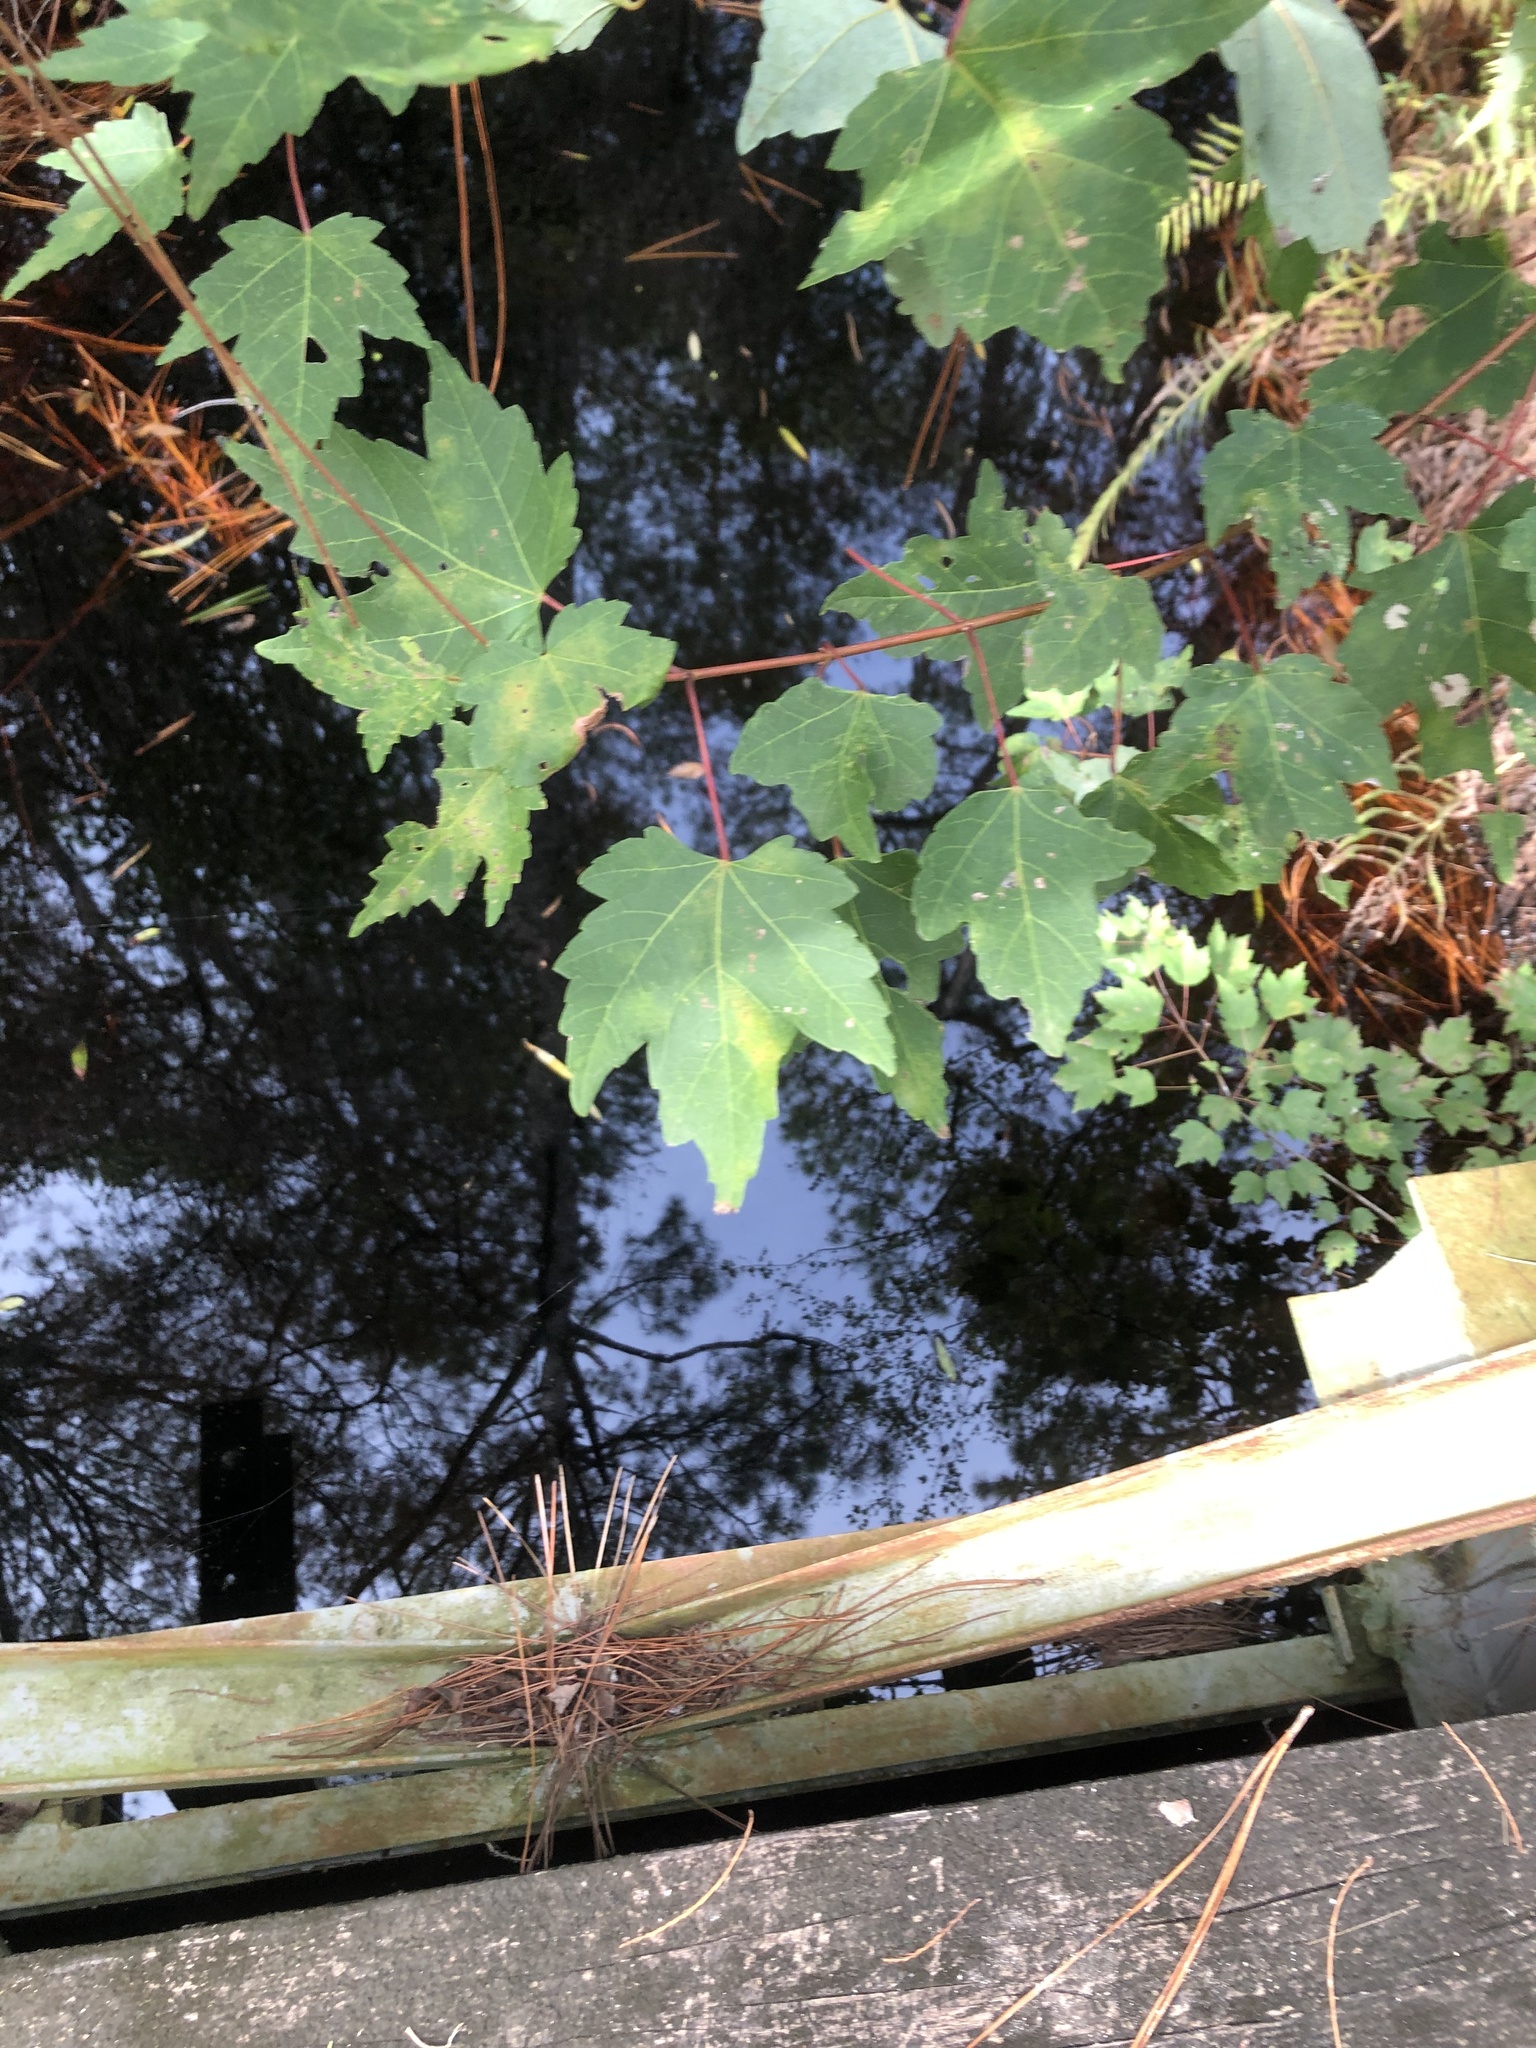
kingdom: Plantae
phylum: Tracheophyta
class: Magnoliopsida
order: Sapindales
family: Sapindaceae
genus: Acer
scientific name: Acer rubrum
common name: Red maple
